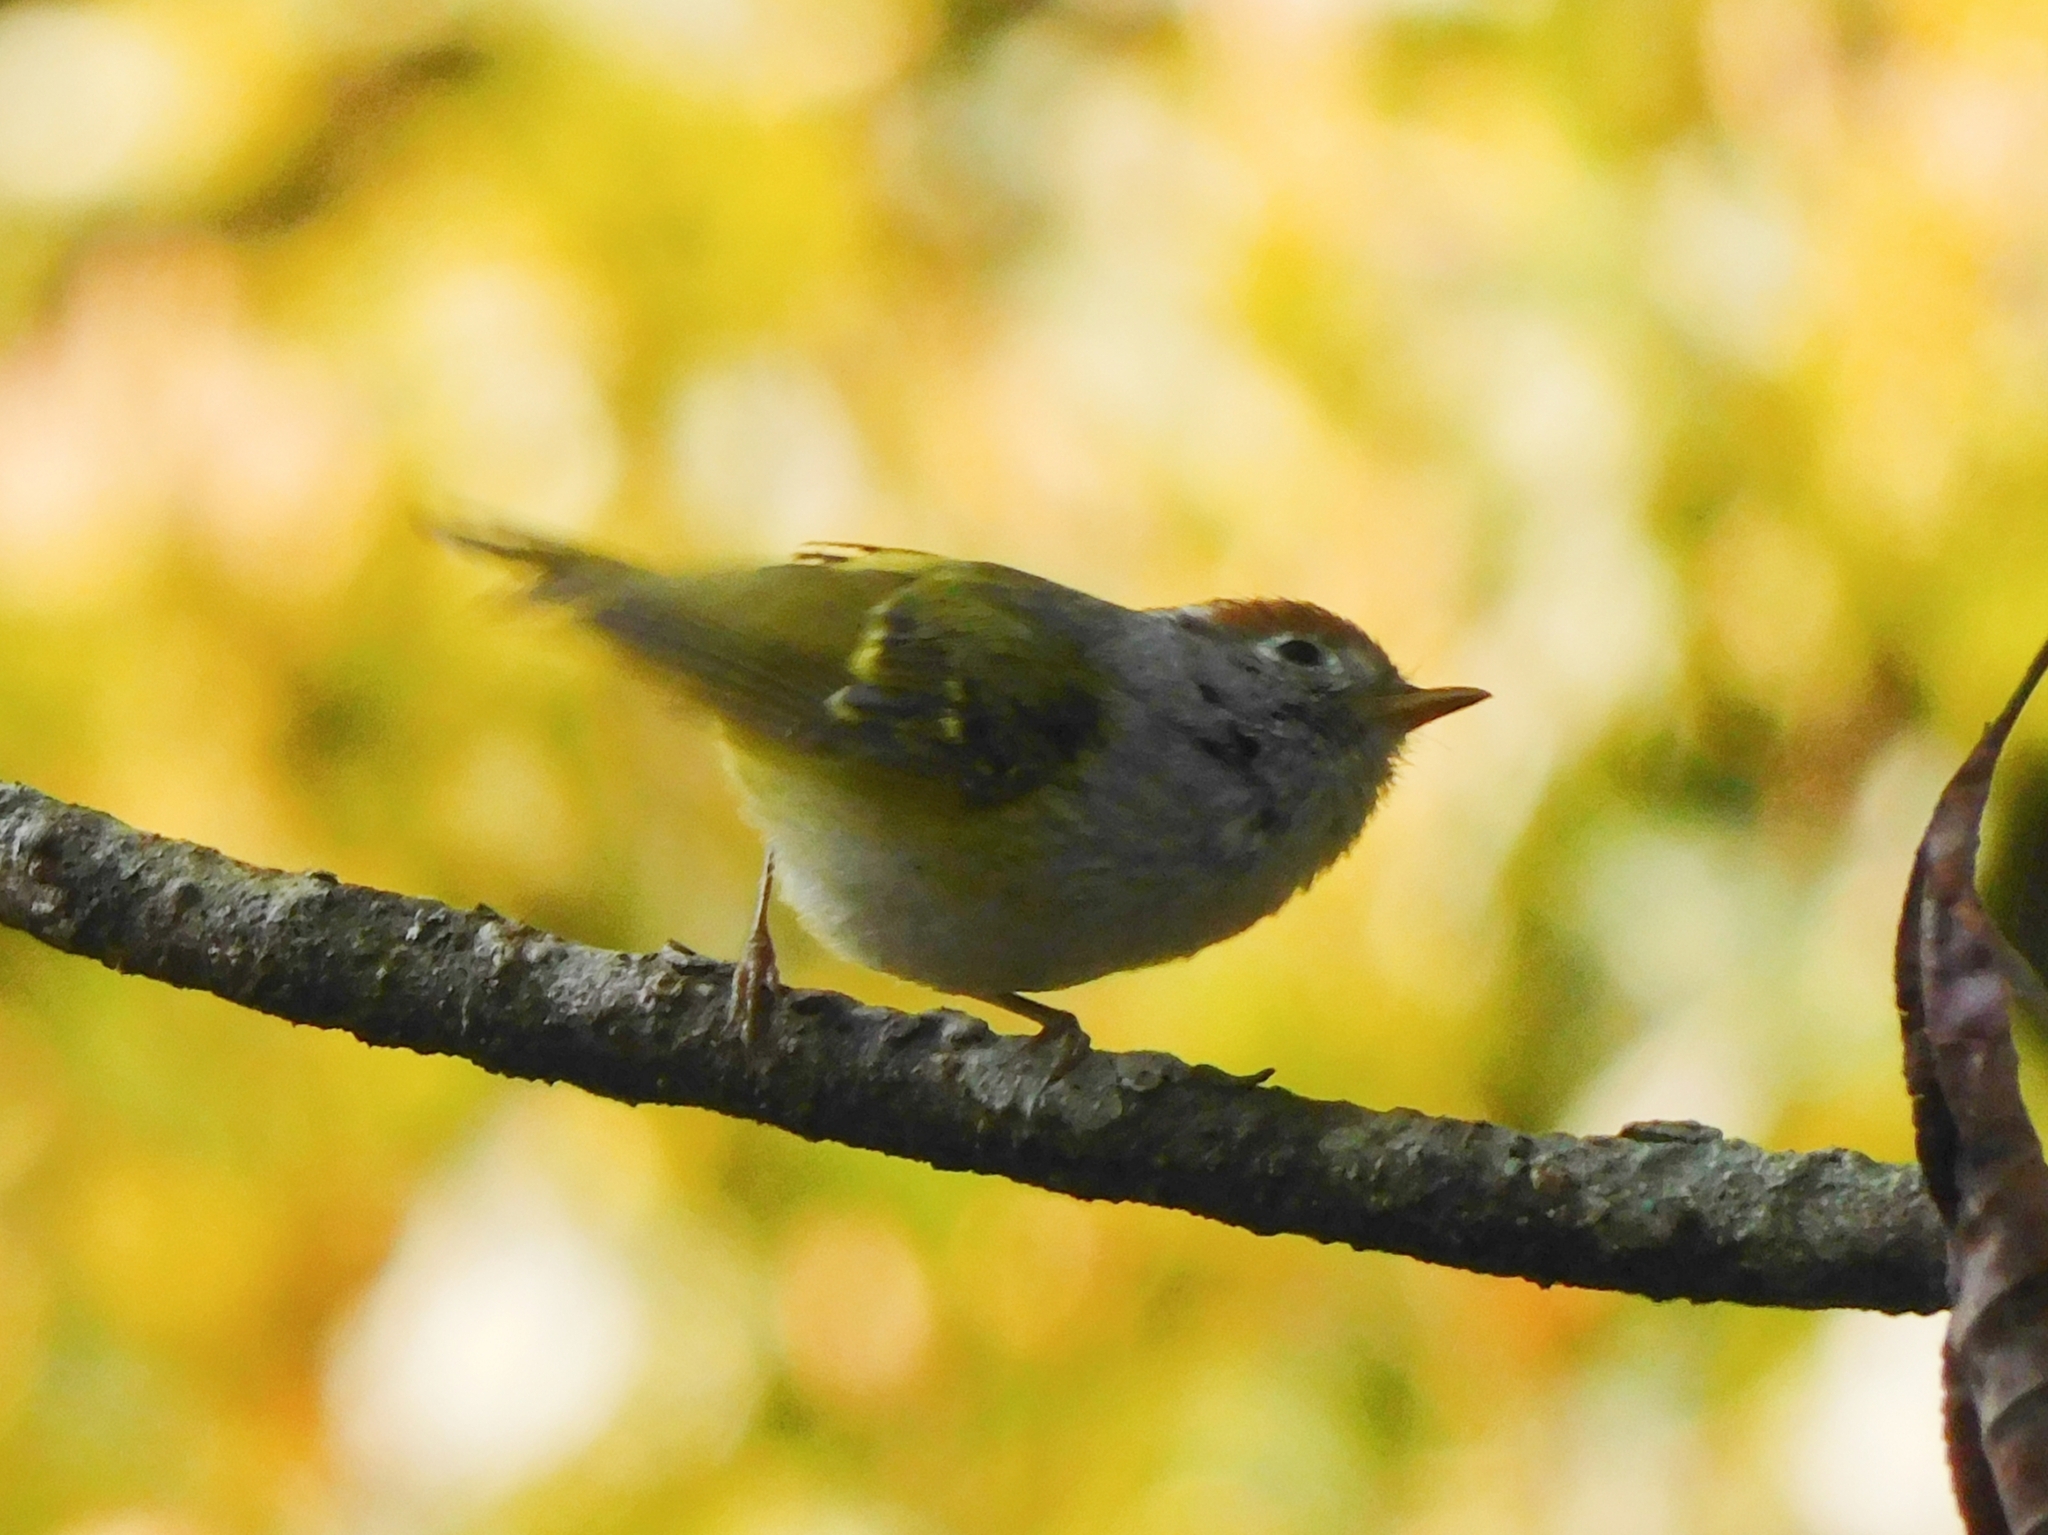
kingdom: Animalia
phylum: Chordata
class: Aves
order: Passeriformes
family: Phylloscopidae
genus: Seicercus
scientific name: Seicercus castaniceps
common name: Chestnut-crowned warbler
